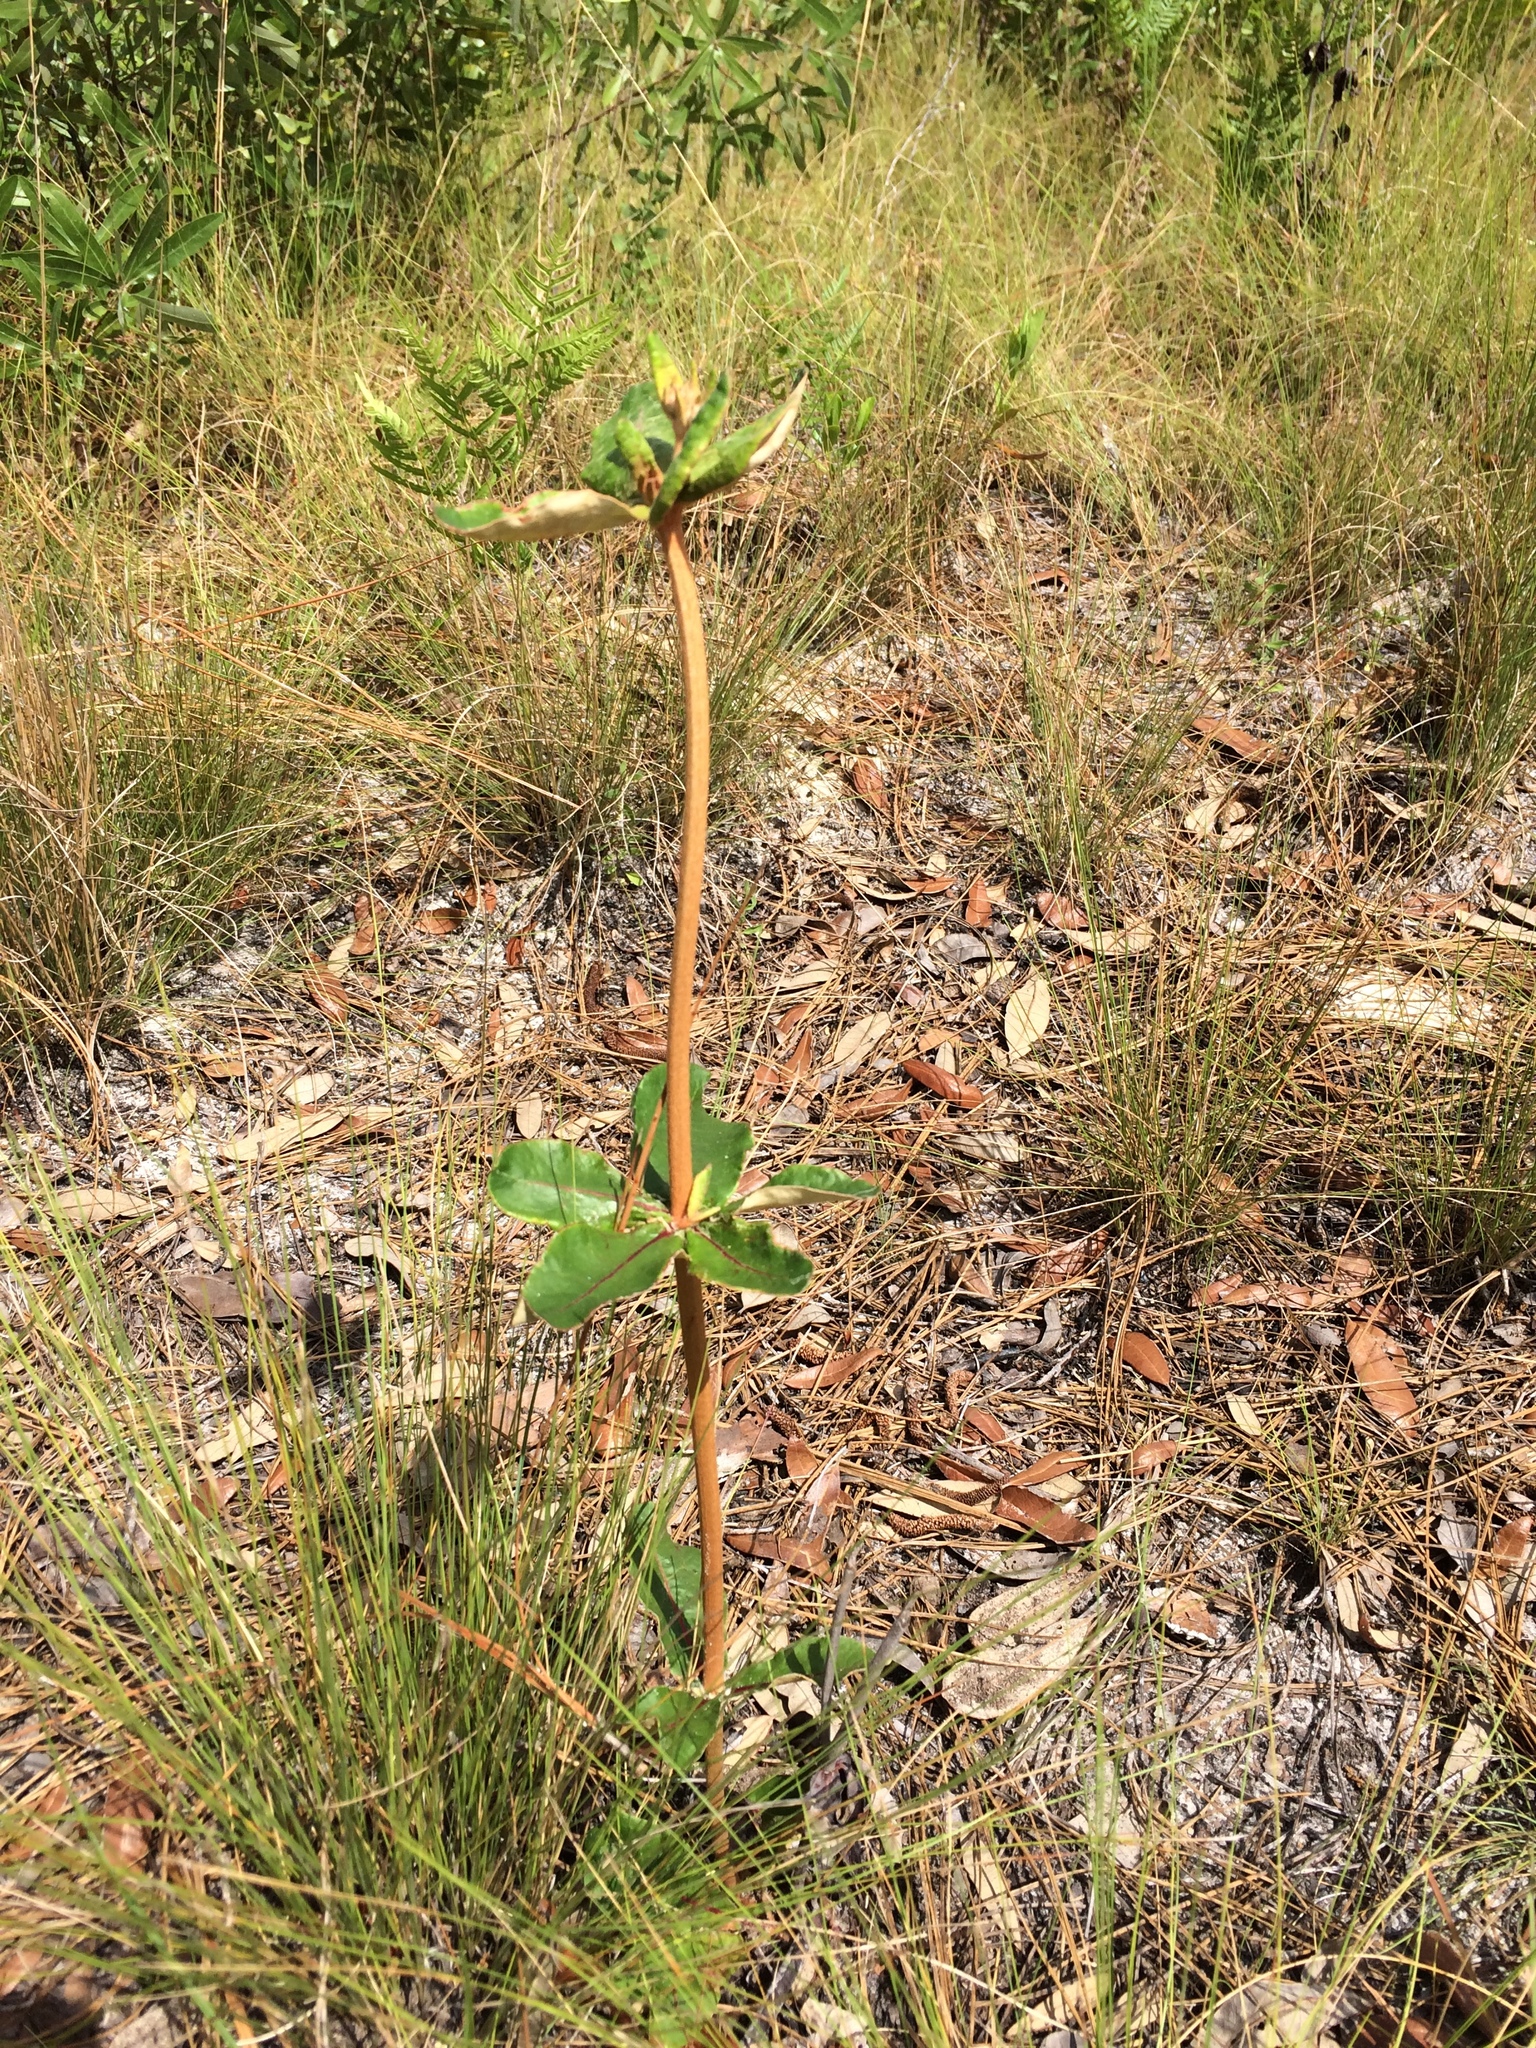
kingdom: Plantae
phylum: Tracheophyta
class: Magnoliopsida
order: Caryophyllales
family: Polygonaceae
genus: Eriogonum
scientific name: Eriogonum tomentosum
